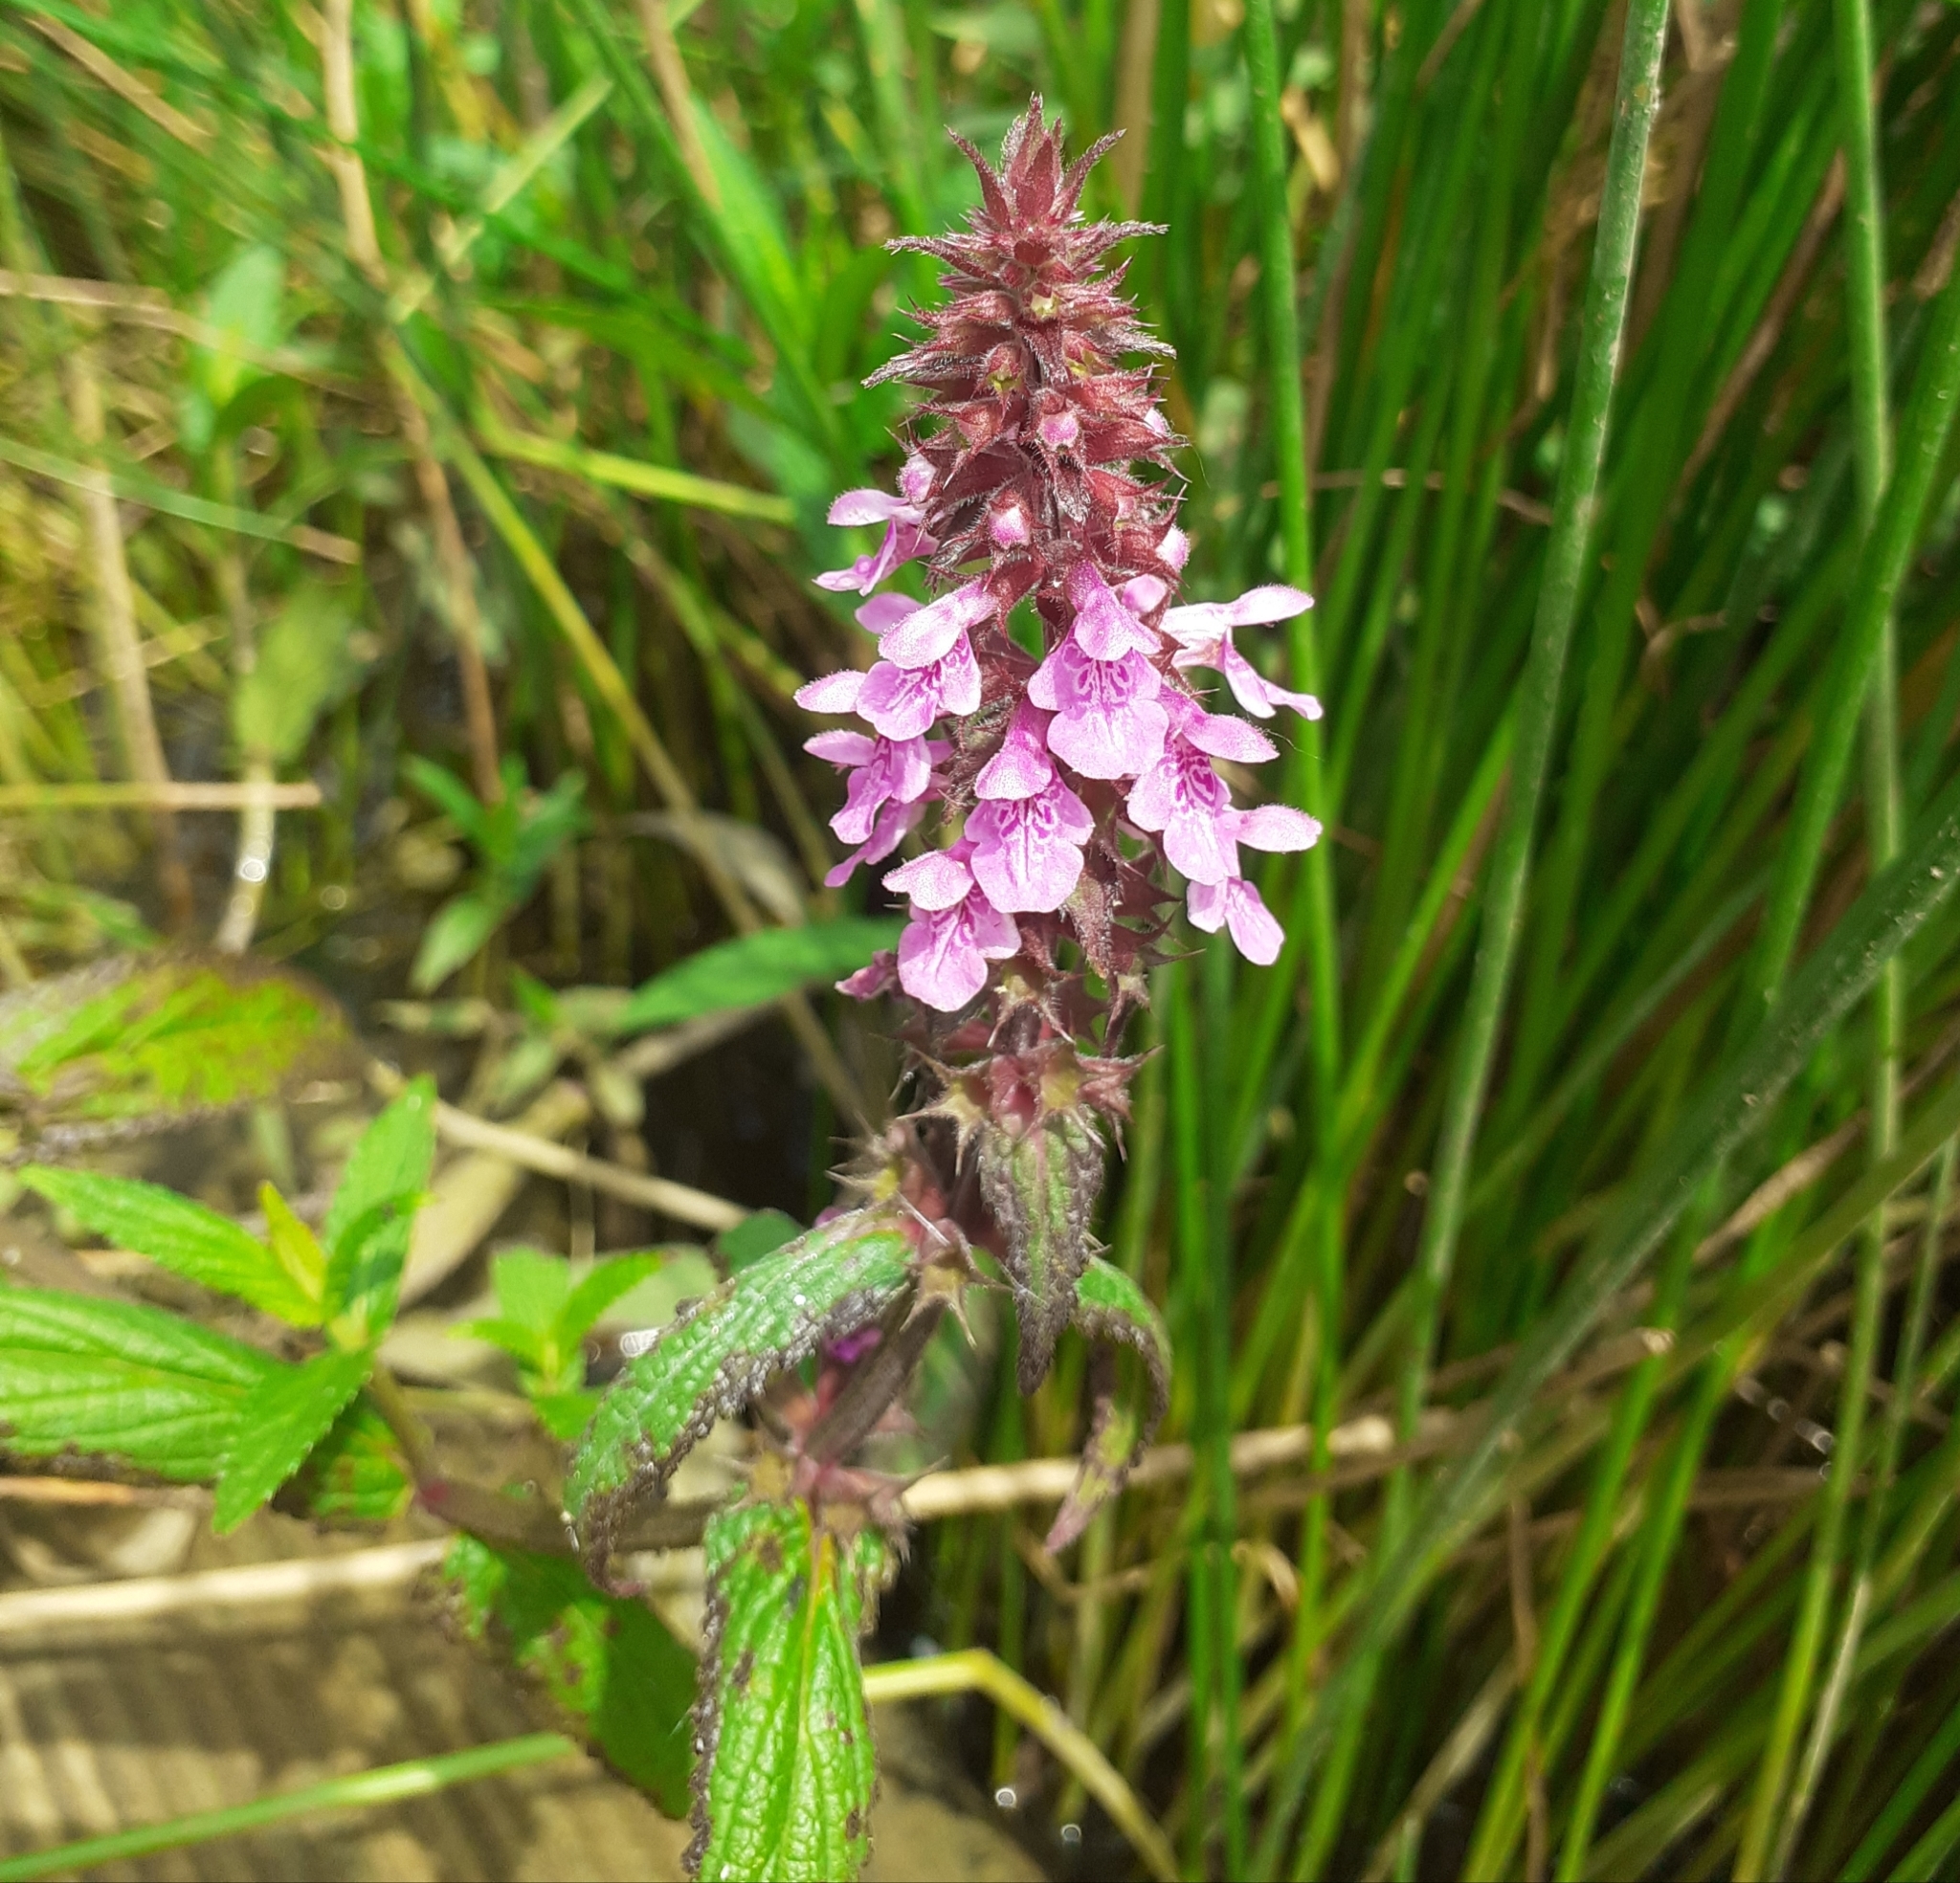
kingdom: Plantae
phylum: Tracheophyta
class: Magnoliopsida
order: Lamiales
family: Lamiaceae
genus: Stachys
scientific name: Stachys palustris
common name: Marsh woundwort
